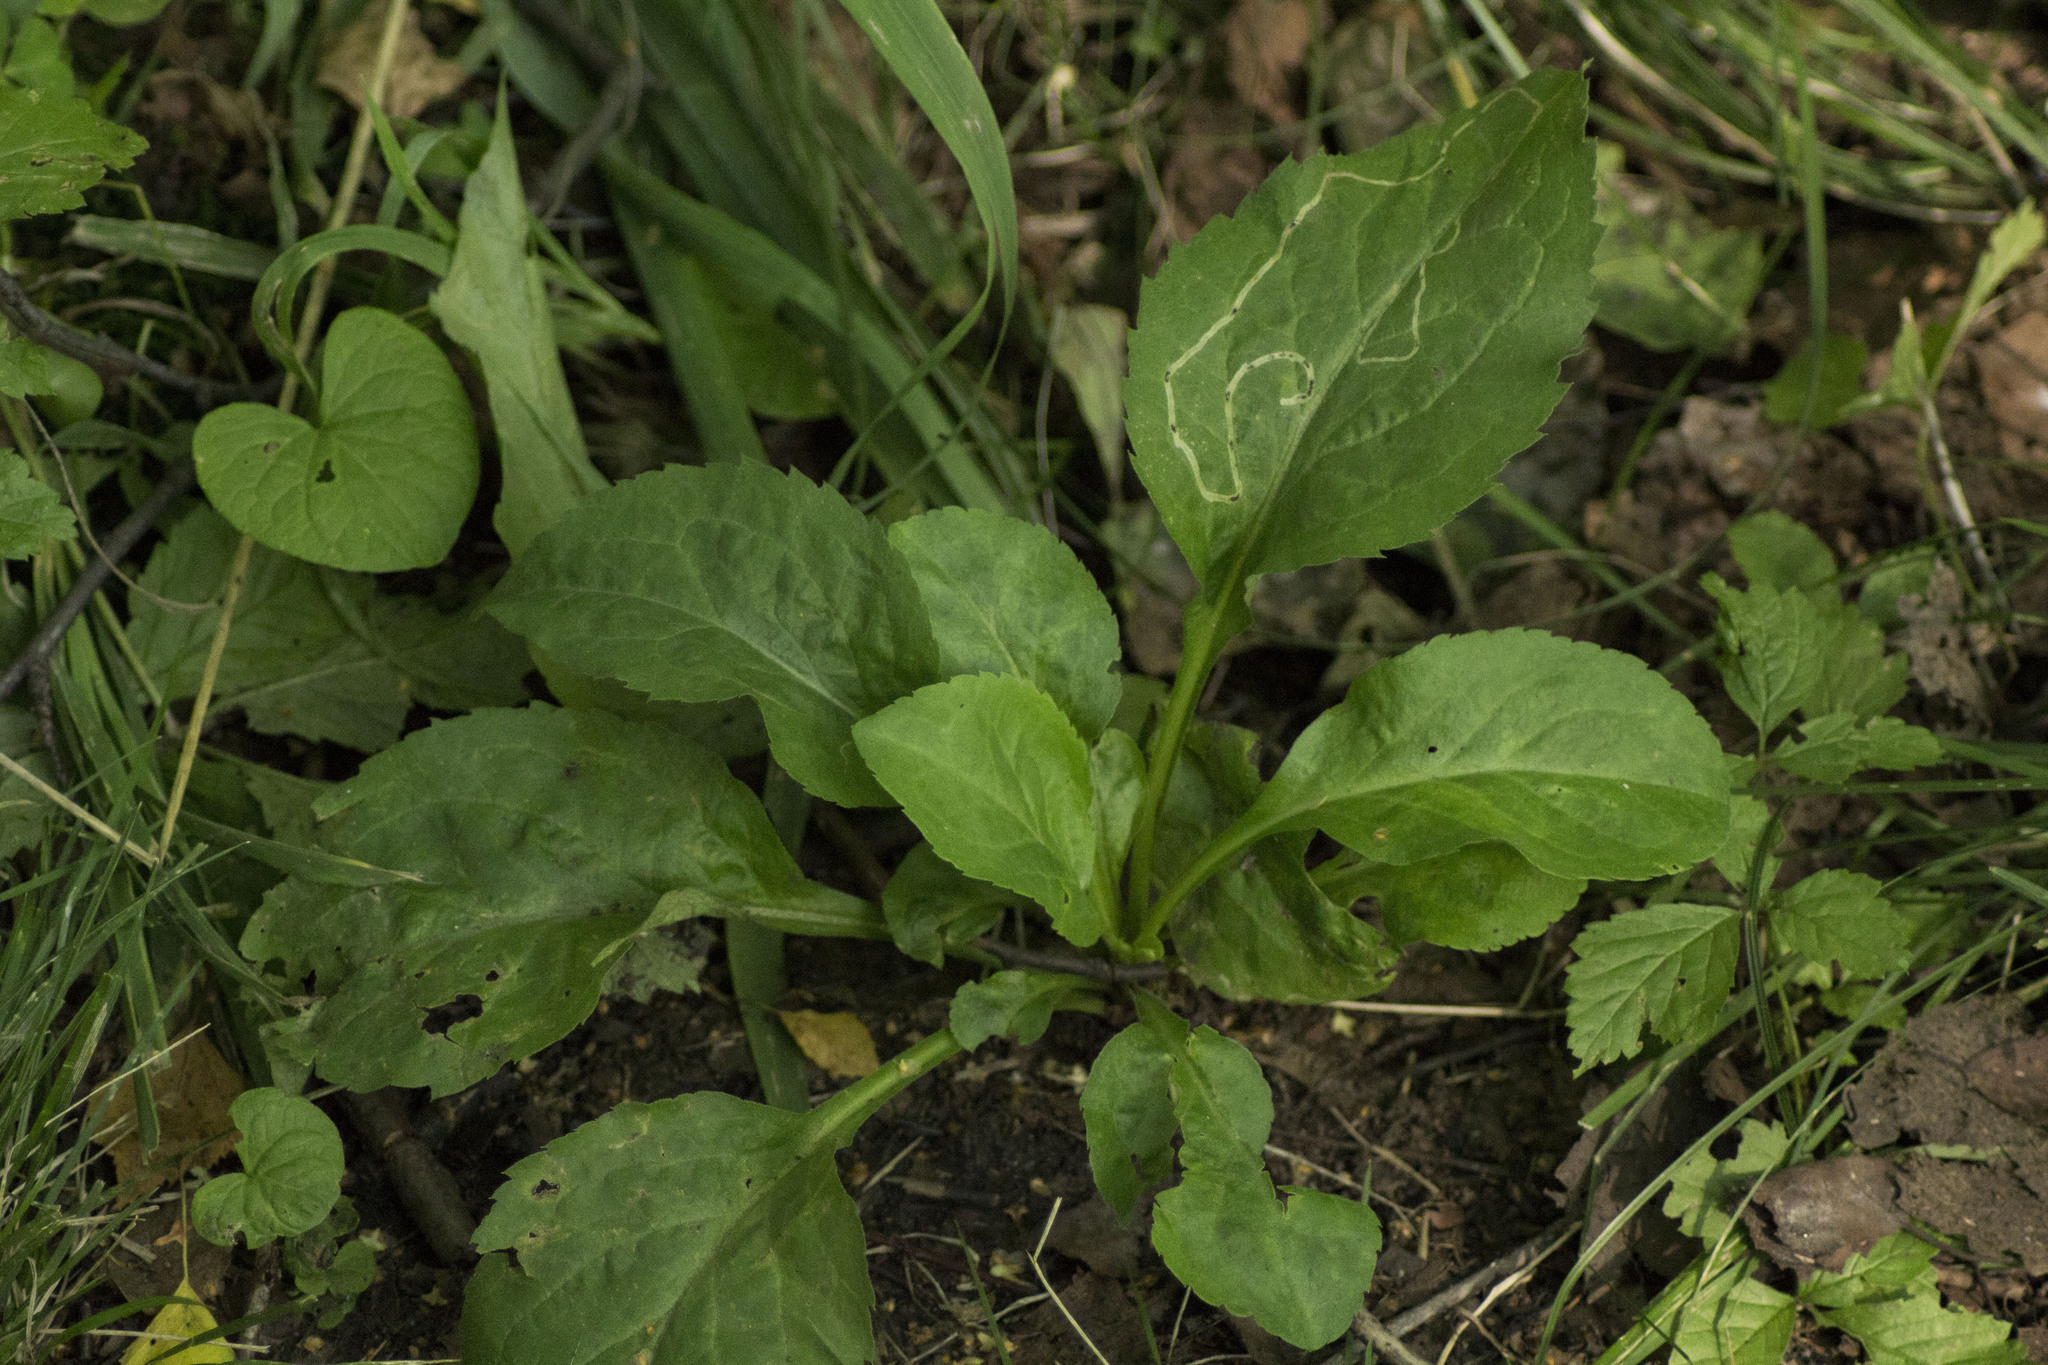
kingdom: Plantae
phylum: Tracheophyta
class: Magnoliopsida
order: Asterales
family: Asteraceae
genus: Solidago
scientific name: Solidago virgaurea
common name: Goldenrod
